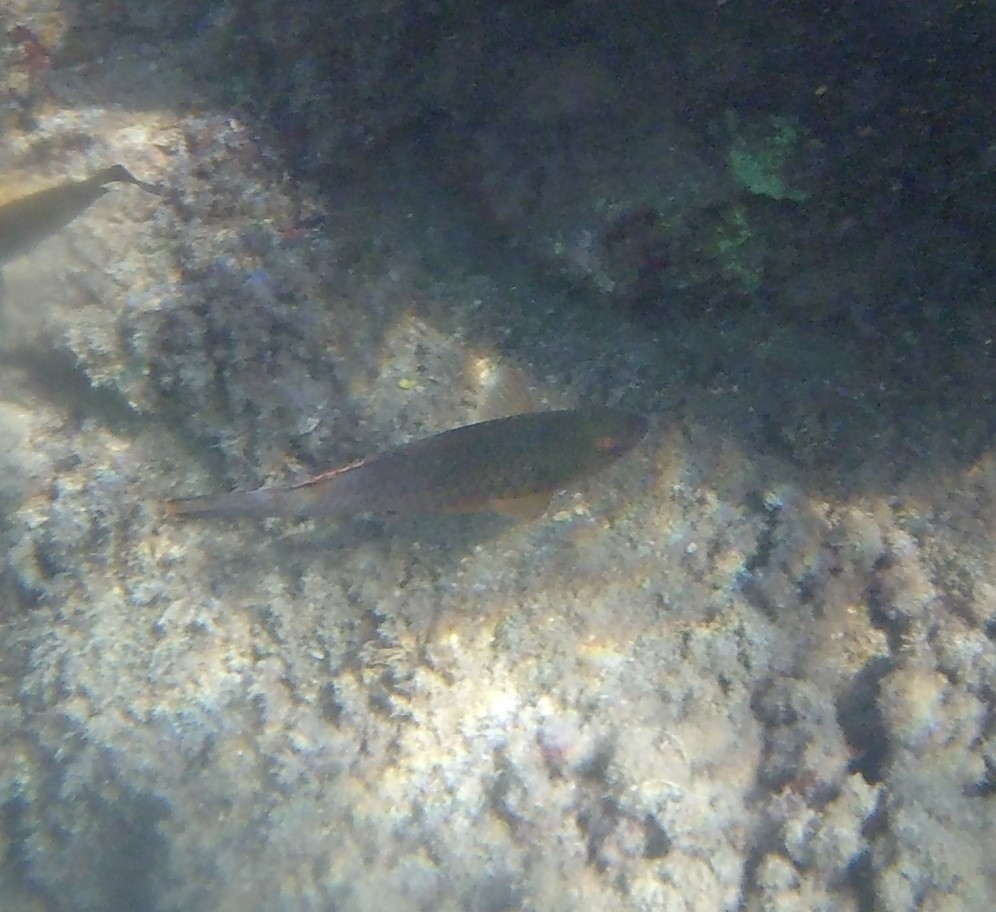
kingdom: Animalia
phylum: Chordata
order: Perciformes
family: Scaridae
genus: Sparisoma
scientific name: Sparisoma cretense
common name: Parrotfish
